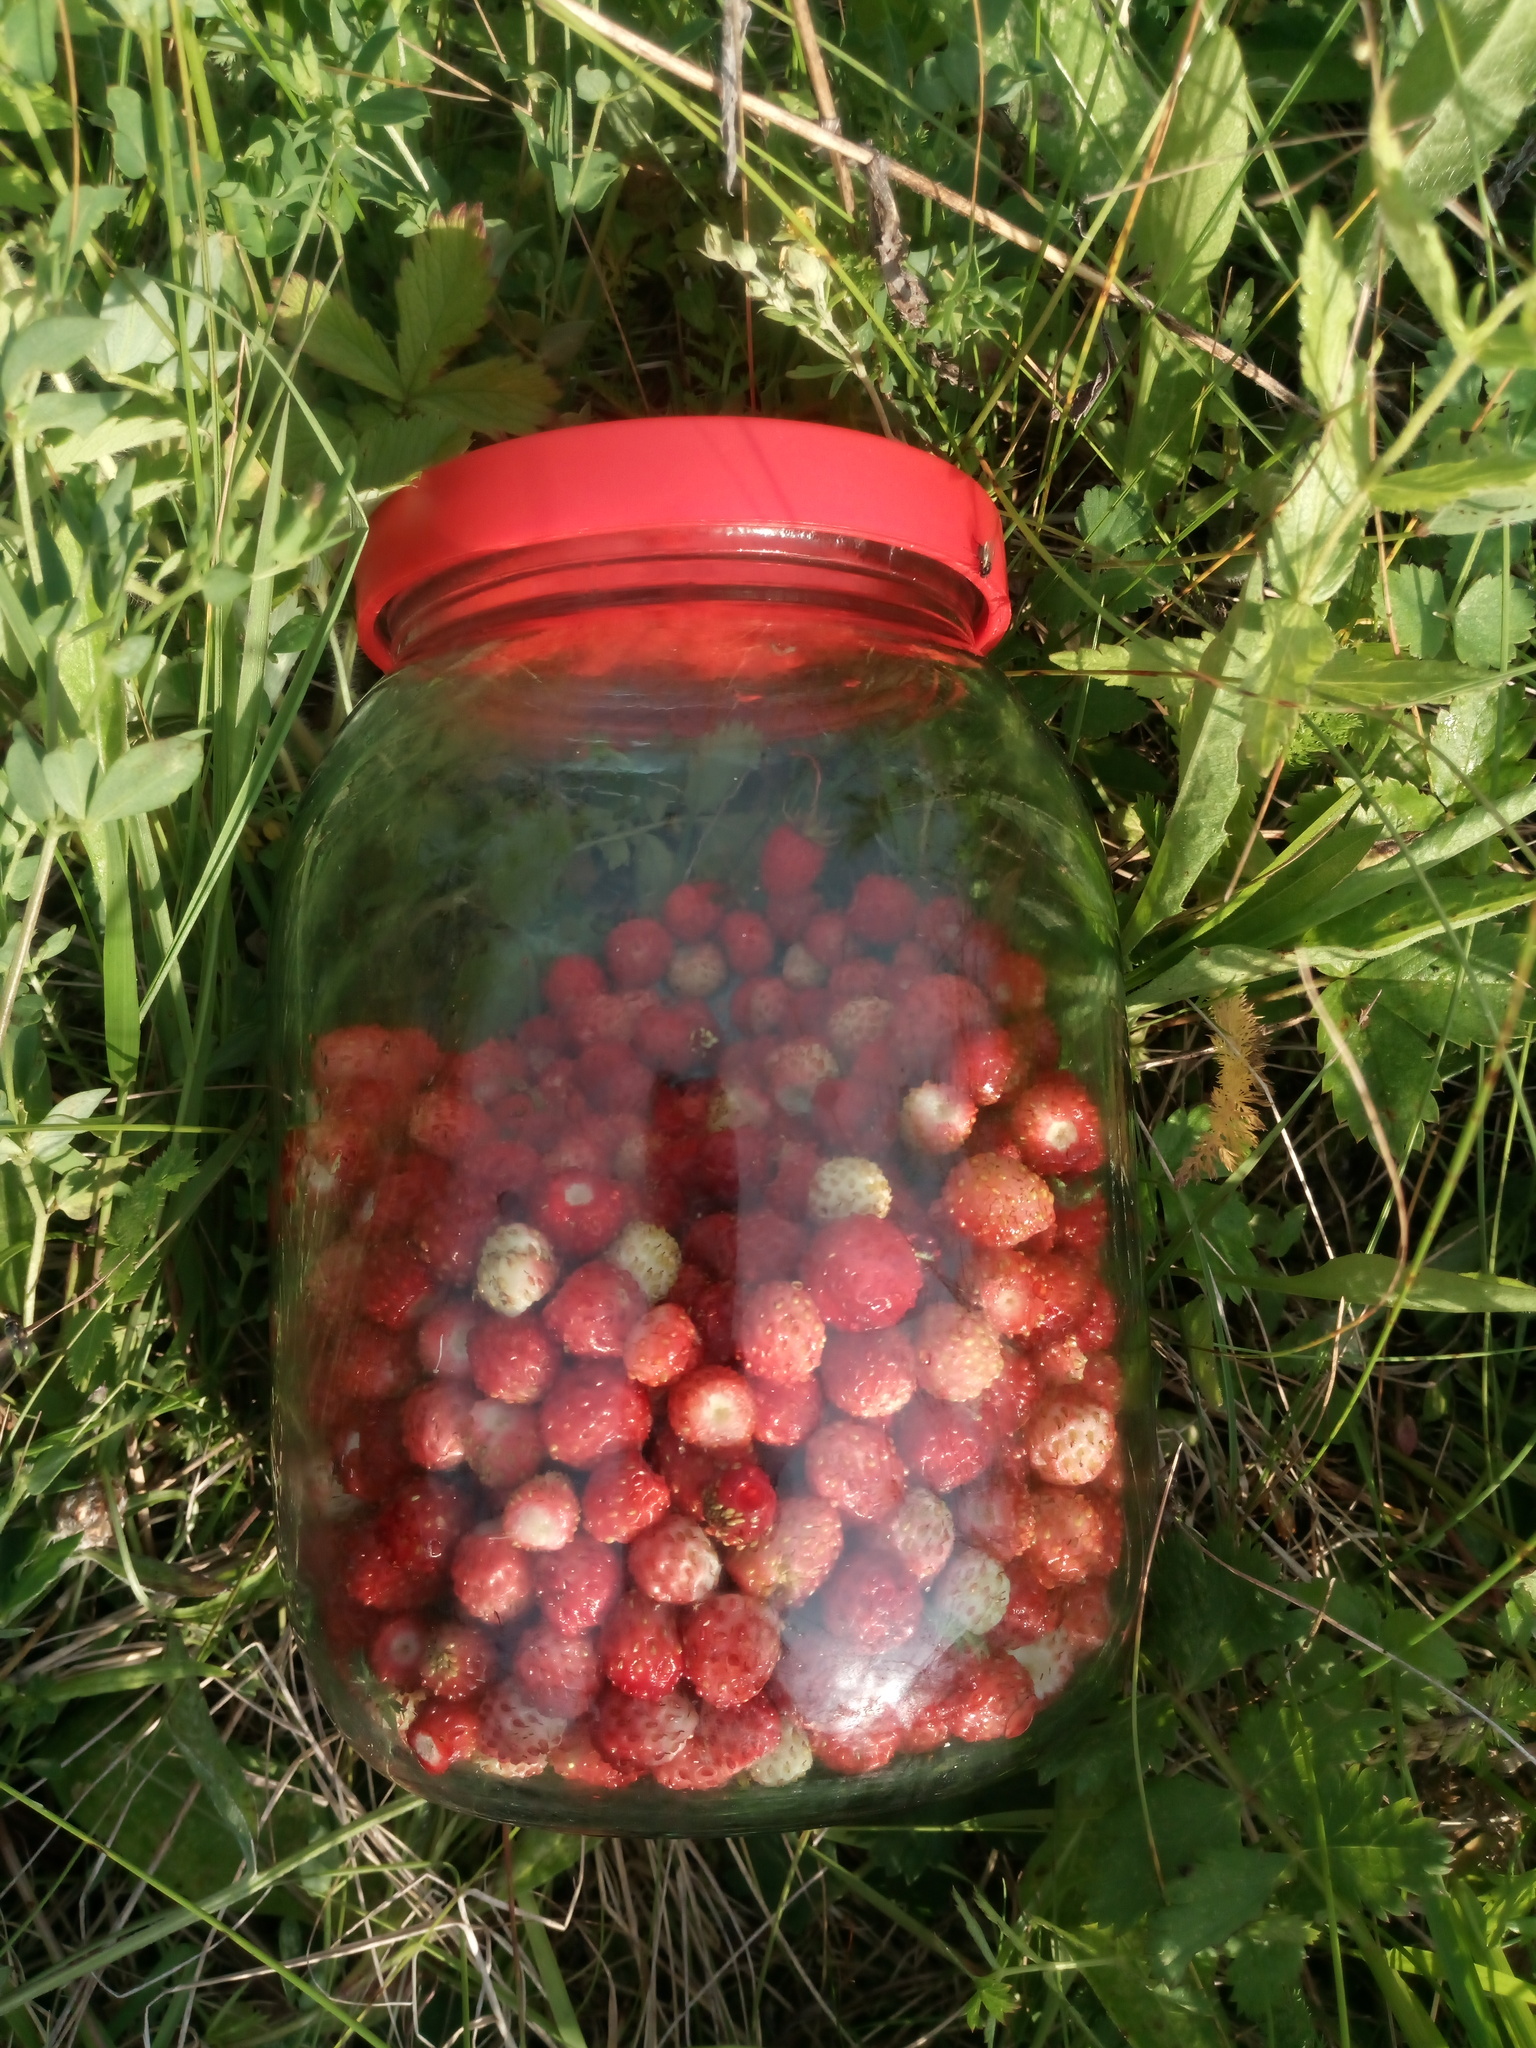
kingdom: Plantae
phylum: Tracheophyta
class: Magnoliopsida
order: Rosales
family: Rosaceae
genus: Fragaria
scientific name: Fragaria vesca
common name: Wild strawberry
